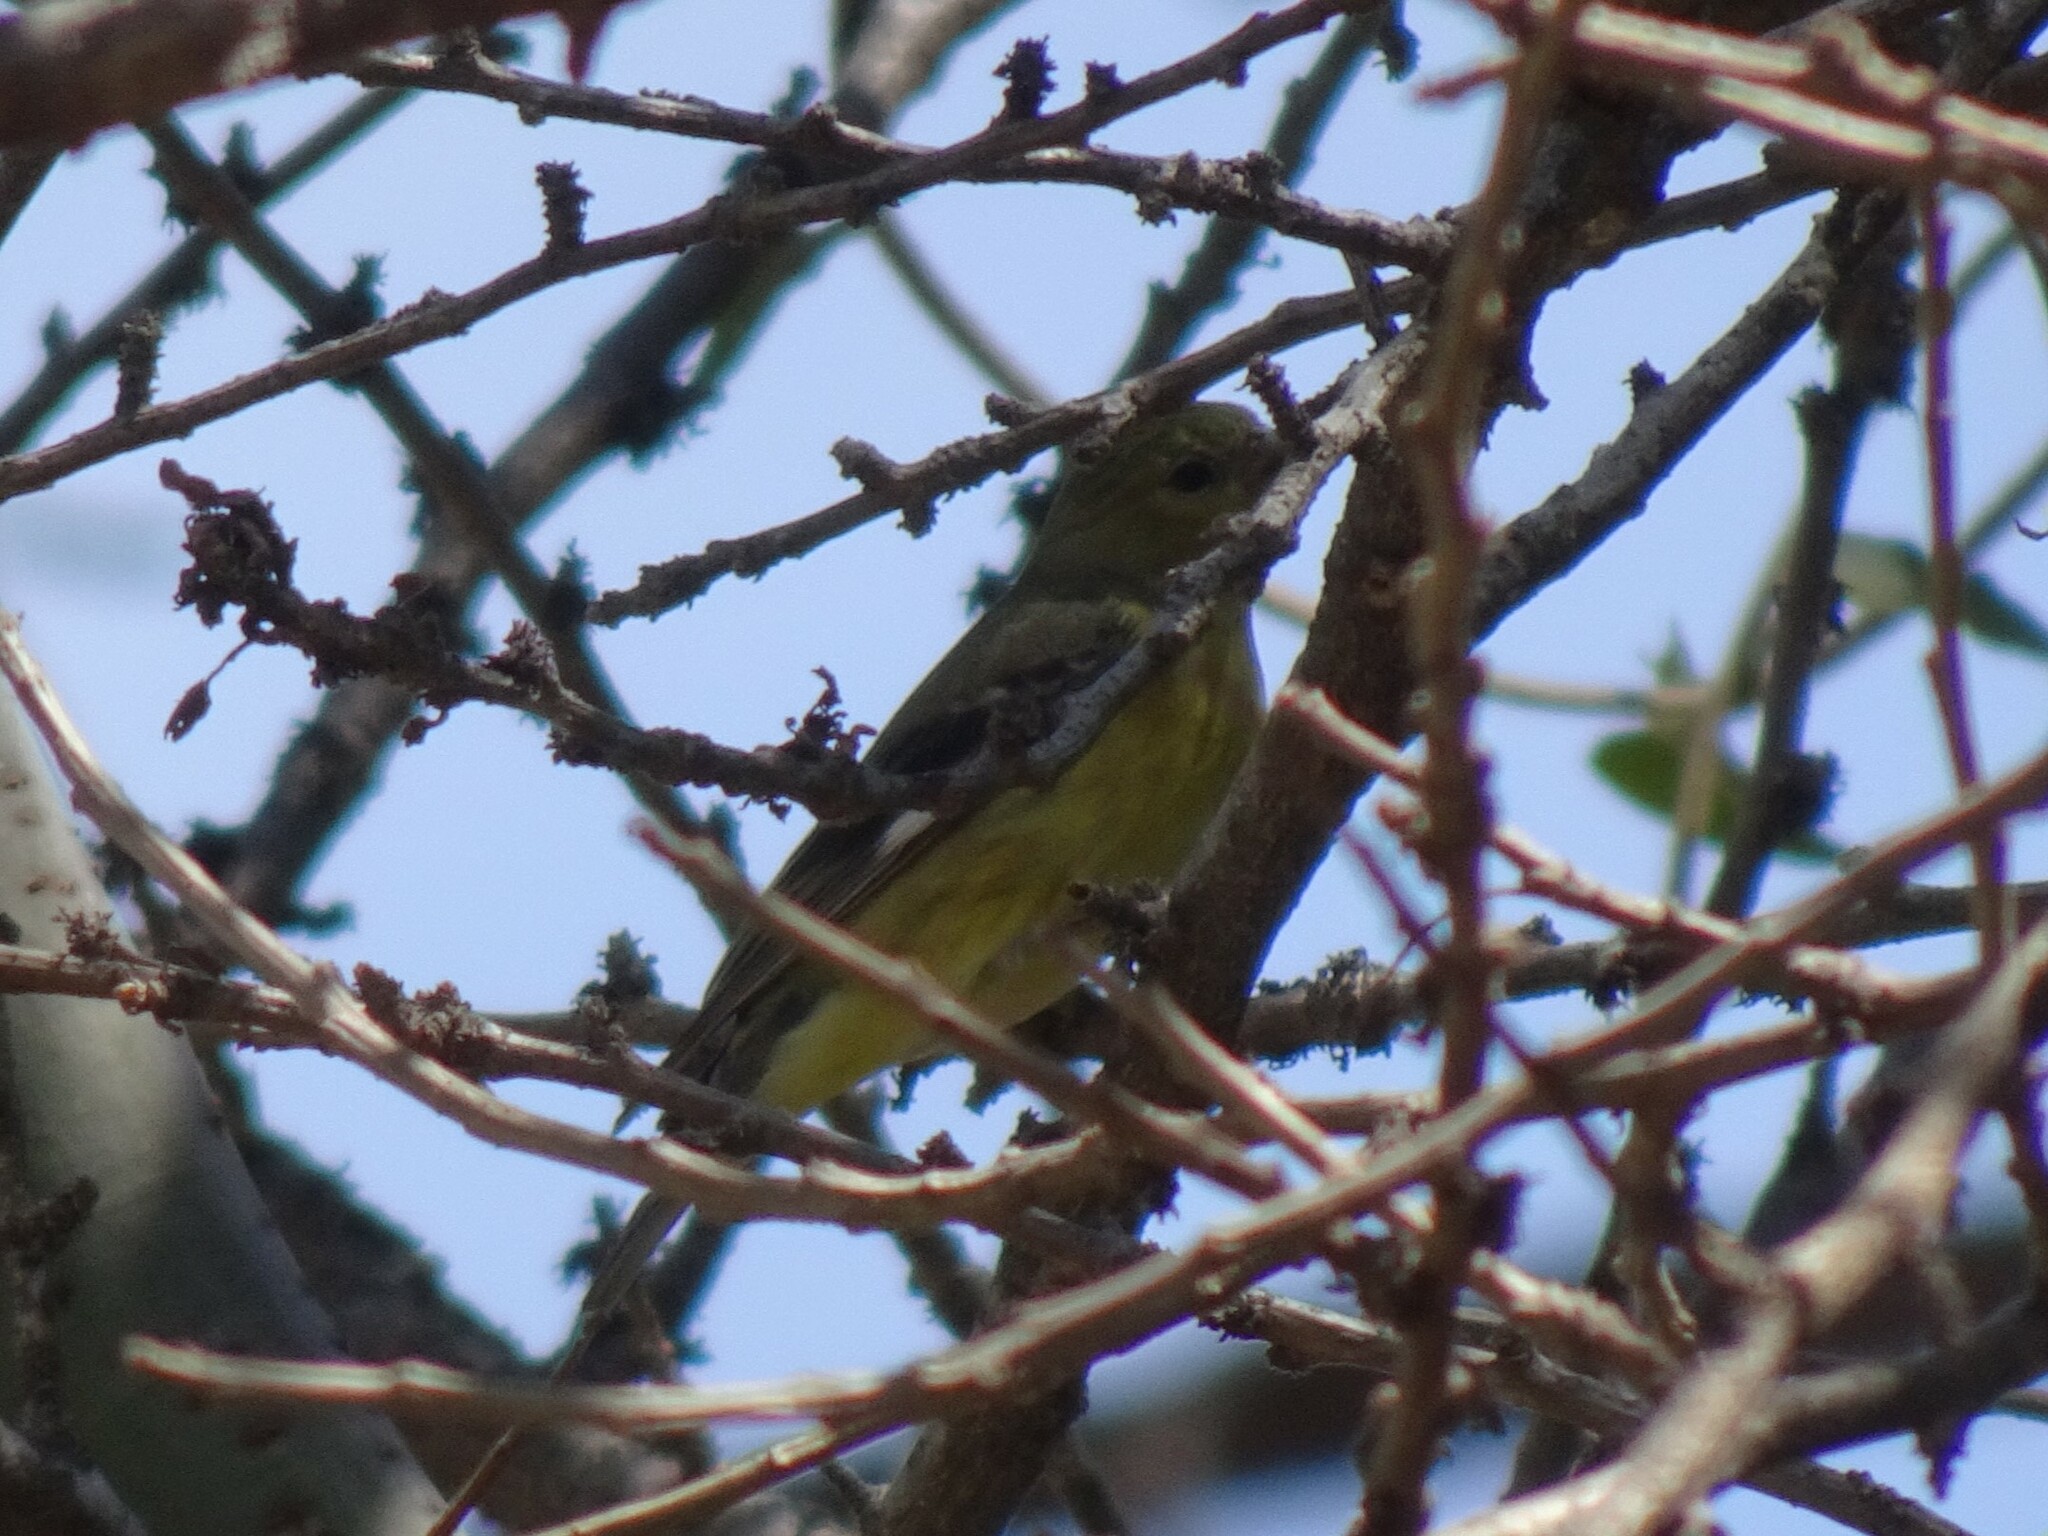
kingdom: Animalia
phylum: Chordata
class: Aves
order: Passeriformes
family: Fringillidae
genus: Spinus
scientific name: Spinus psaltria
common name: Lesser goldfinch
